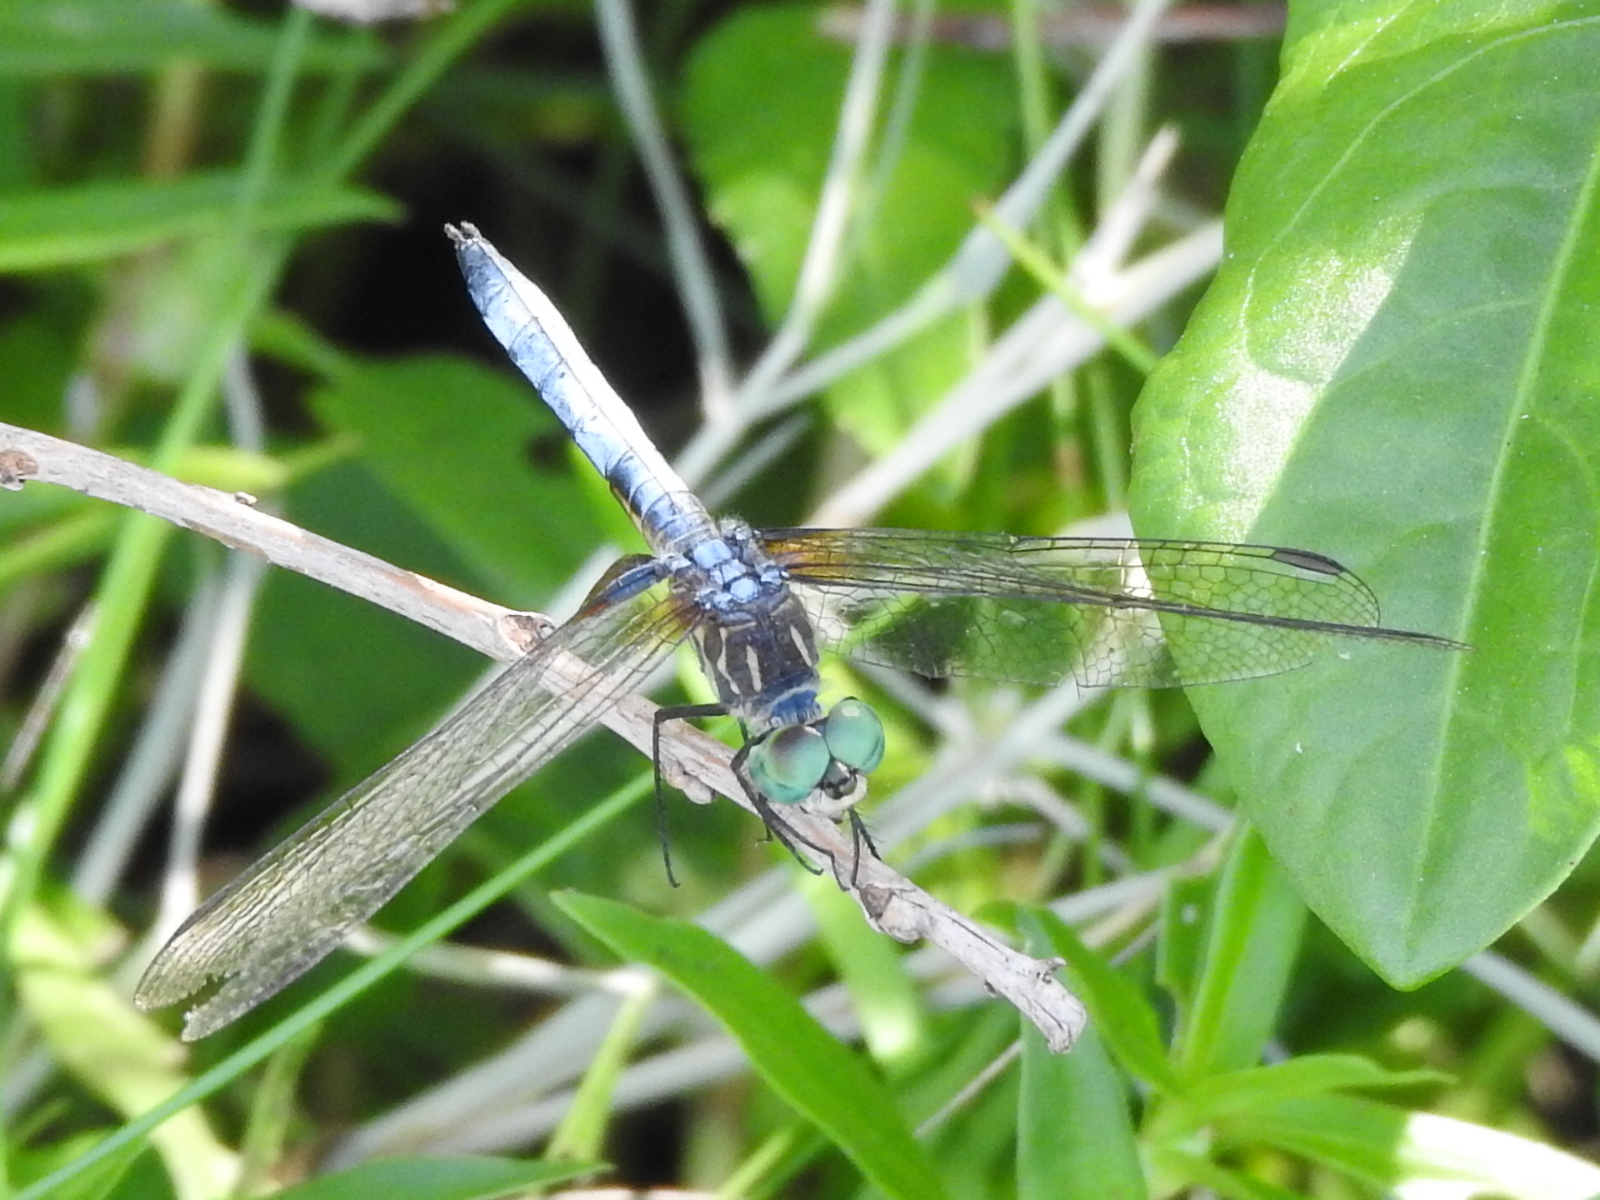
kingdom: Animalia
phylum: Arthropoda
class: Insecta
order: Odonata
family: Libellulidae
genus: Pachydiplax
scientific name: Pachydiplax longipennis
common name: Blue dasher
